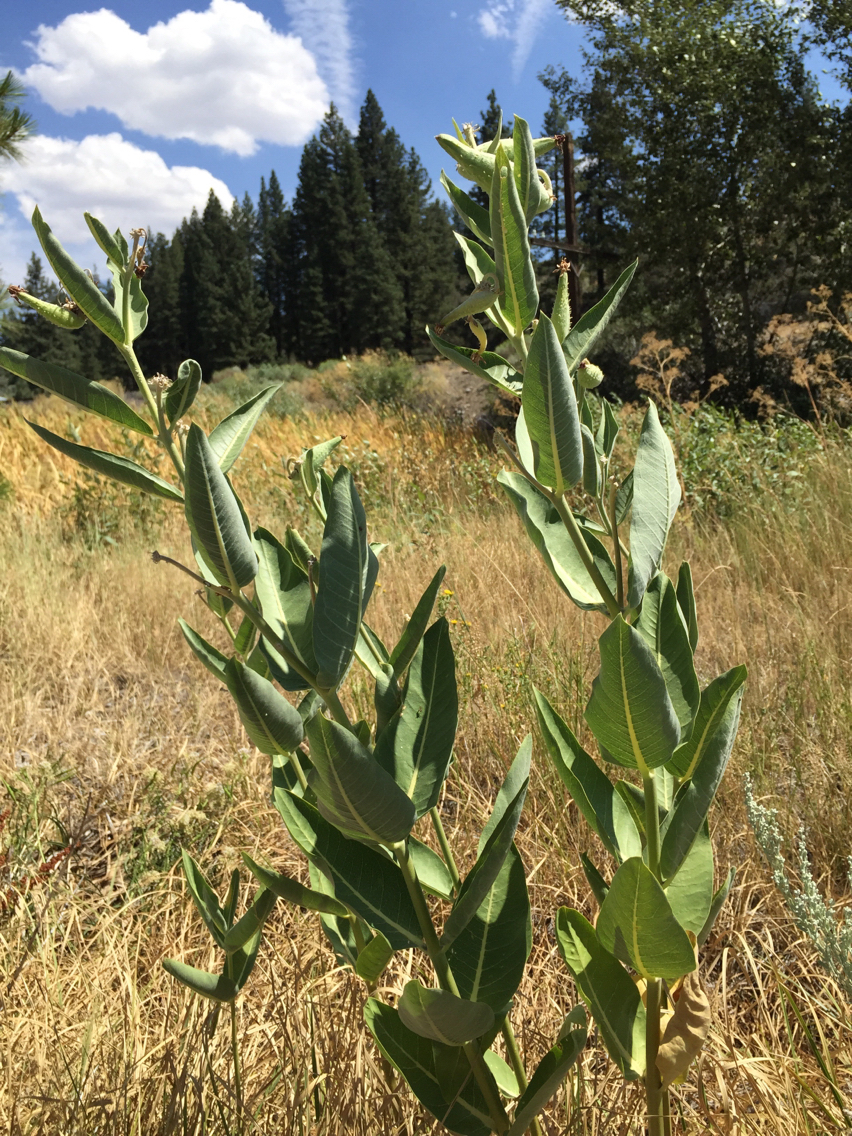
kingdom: Plantae
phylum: Tracheophyta
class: Magnoliopsida
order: Gentianales
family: Apocynaceae
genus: Asclepias
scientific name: Asclepias speciosa
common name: Showy milkweed
